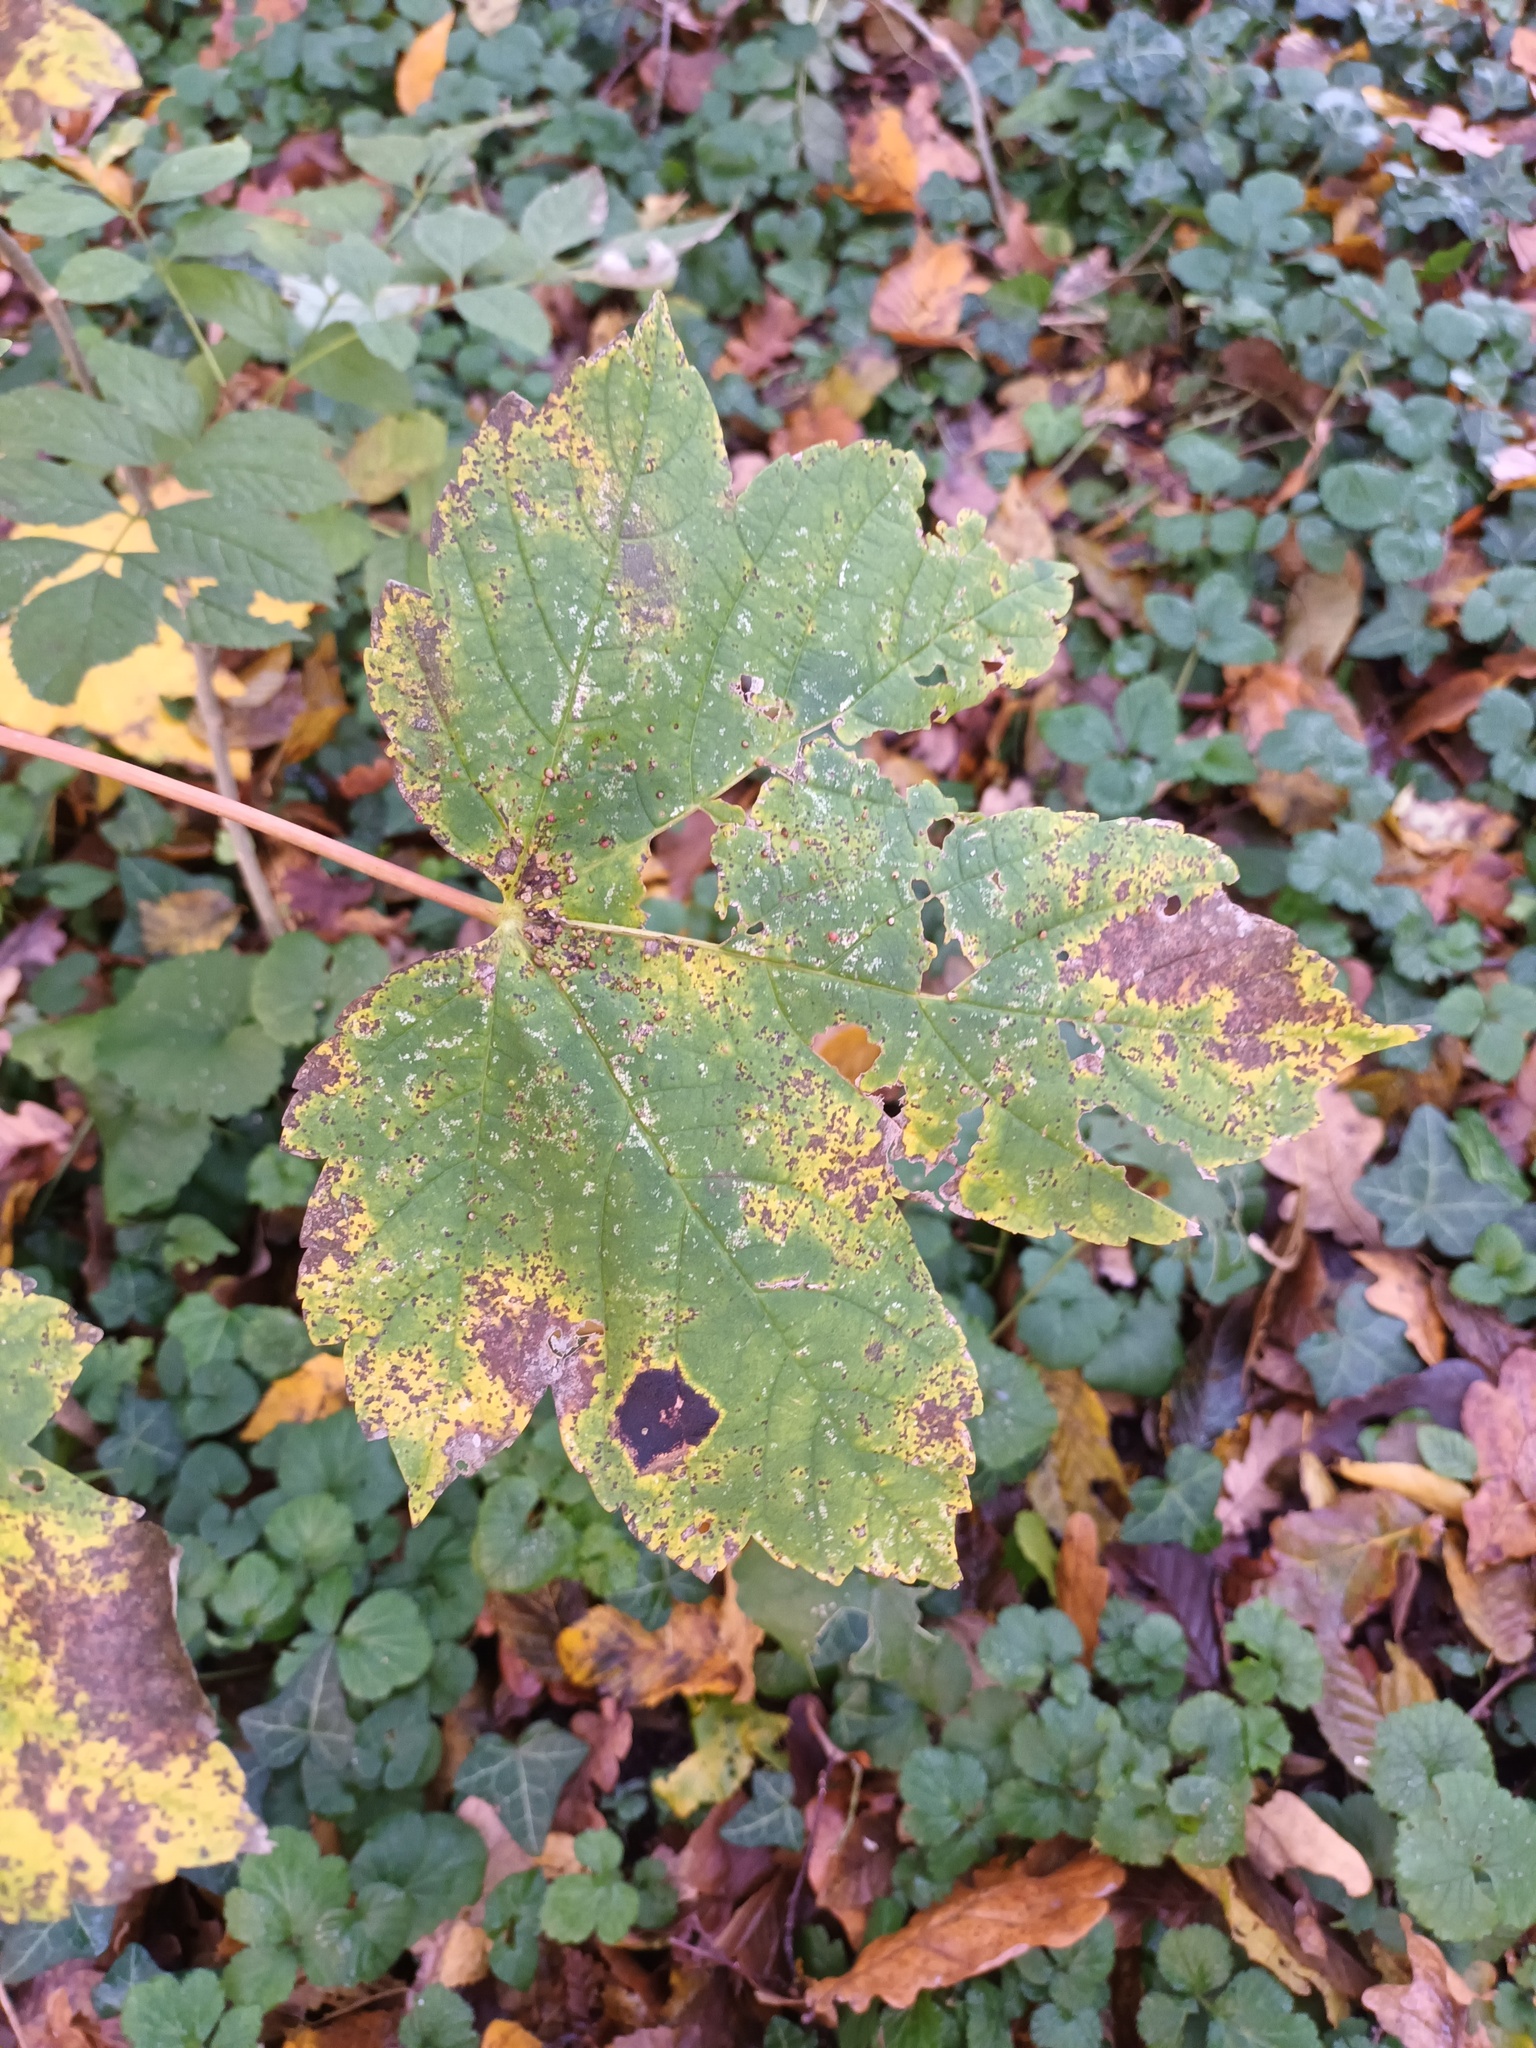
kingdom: Fungi
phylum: Ascomycota
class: Leotiomycetes
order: Rhytismatales
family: Rhytismataceae
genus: Rhytisma
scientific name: Rhytisma acerinum
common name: European tar spot
